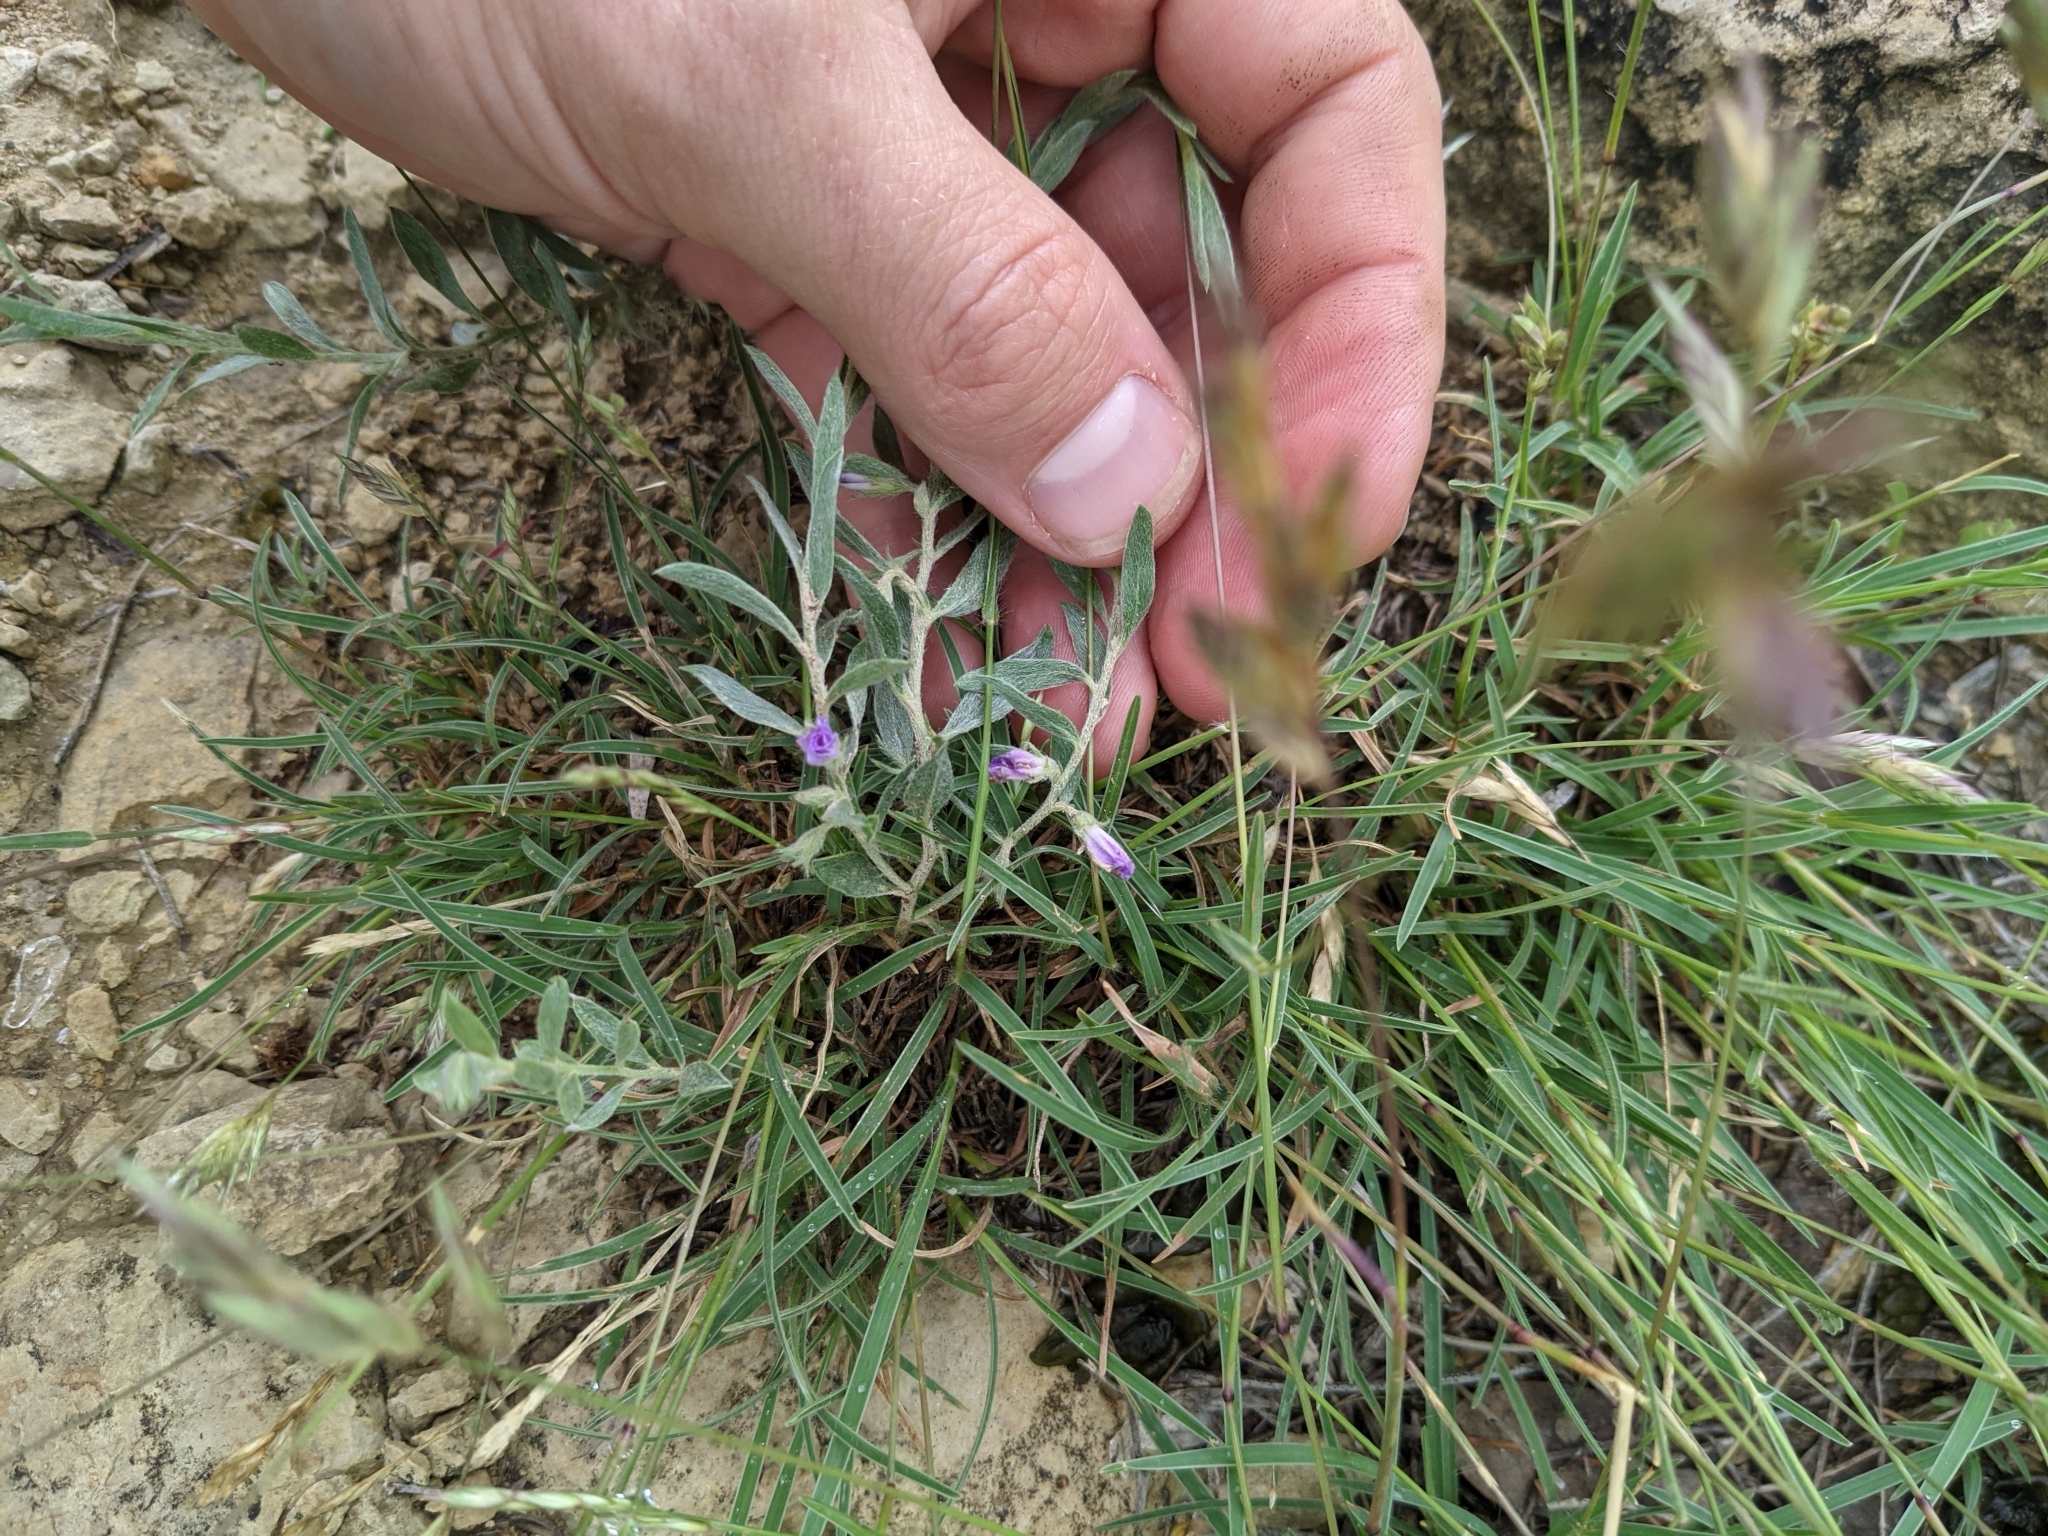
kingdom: Plantae
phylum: Tracheophyta
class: Magnoliopsida
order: Solanales
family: Convolvulaceae
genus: Evolvulus
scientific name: Evolvulus nuttallianus
